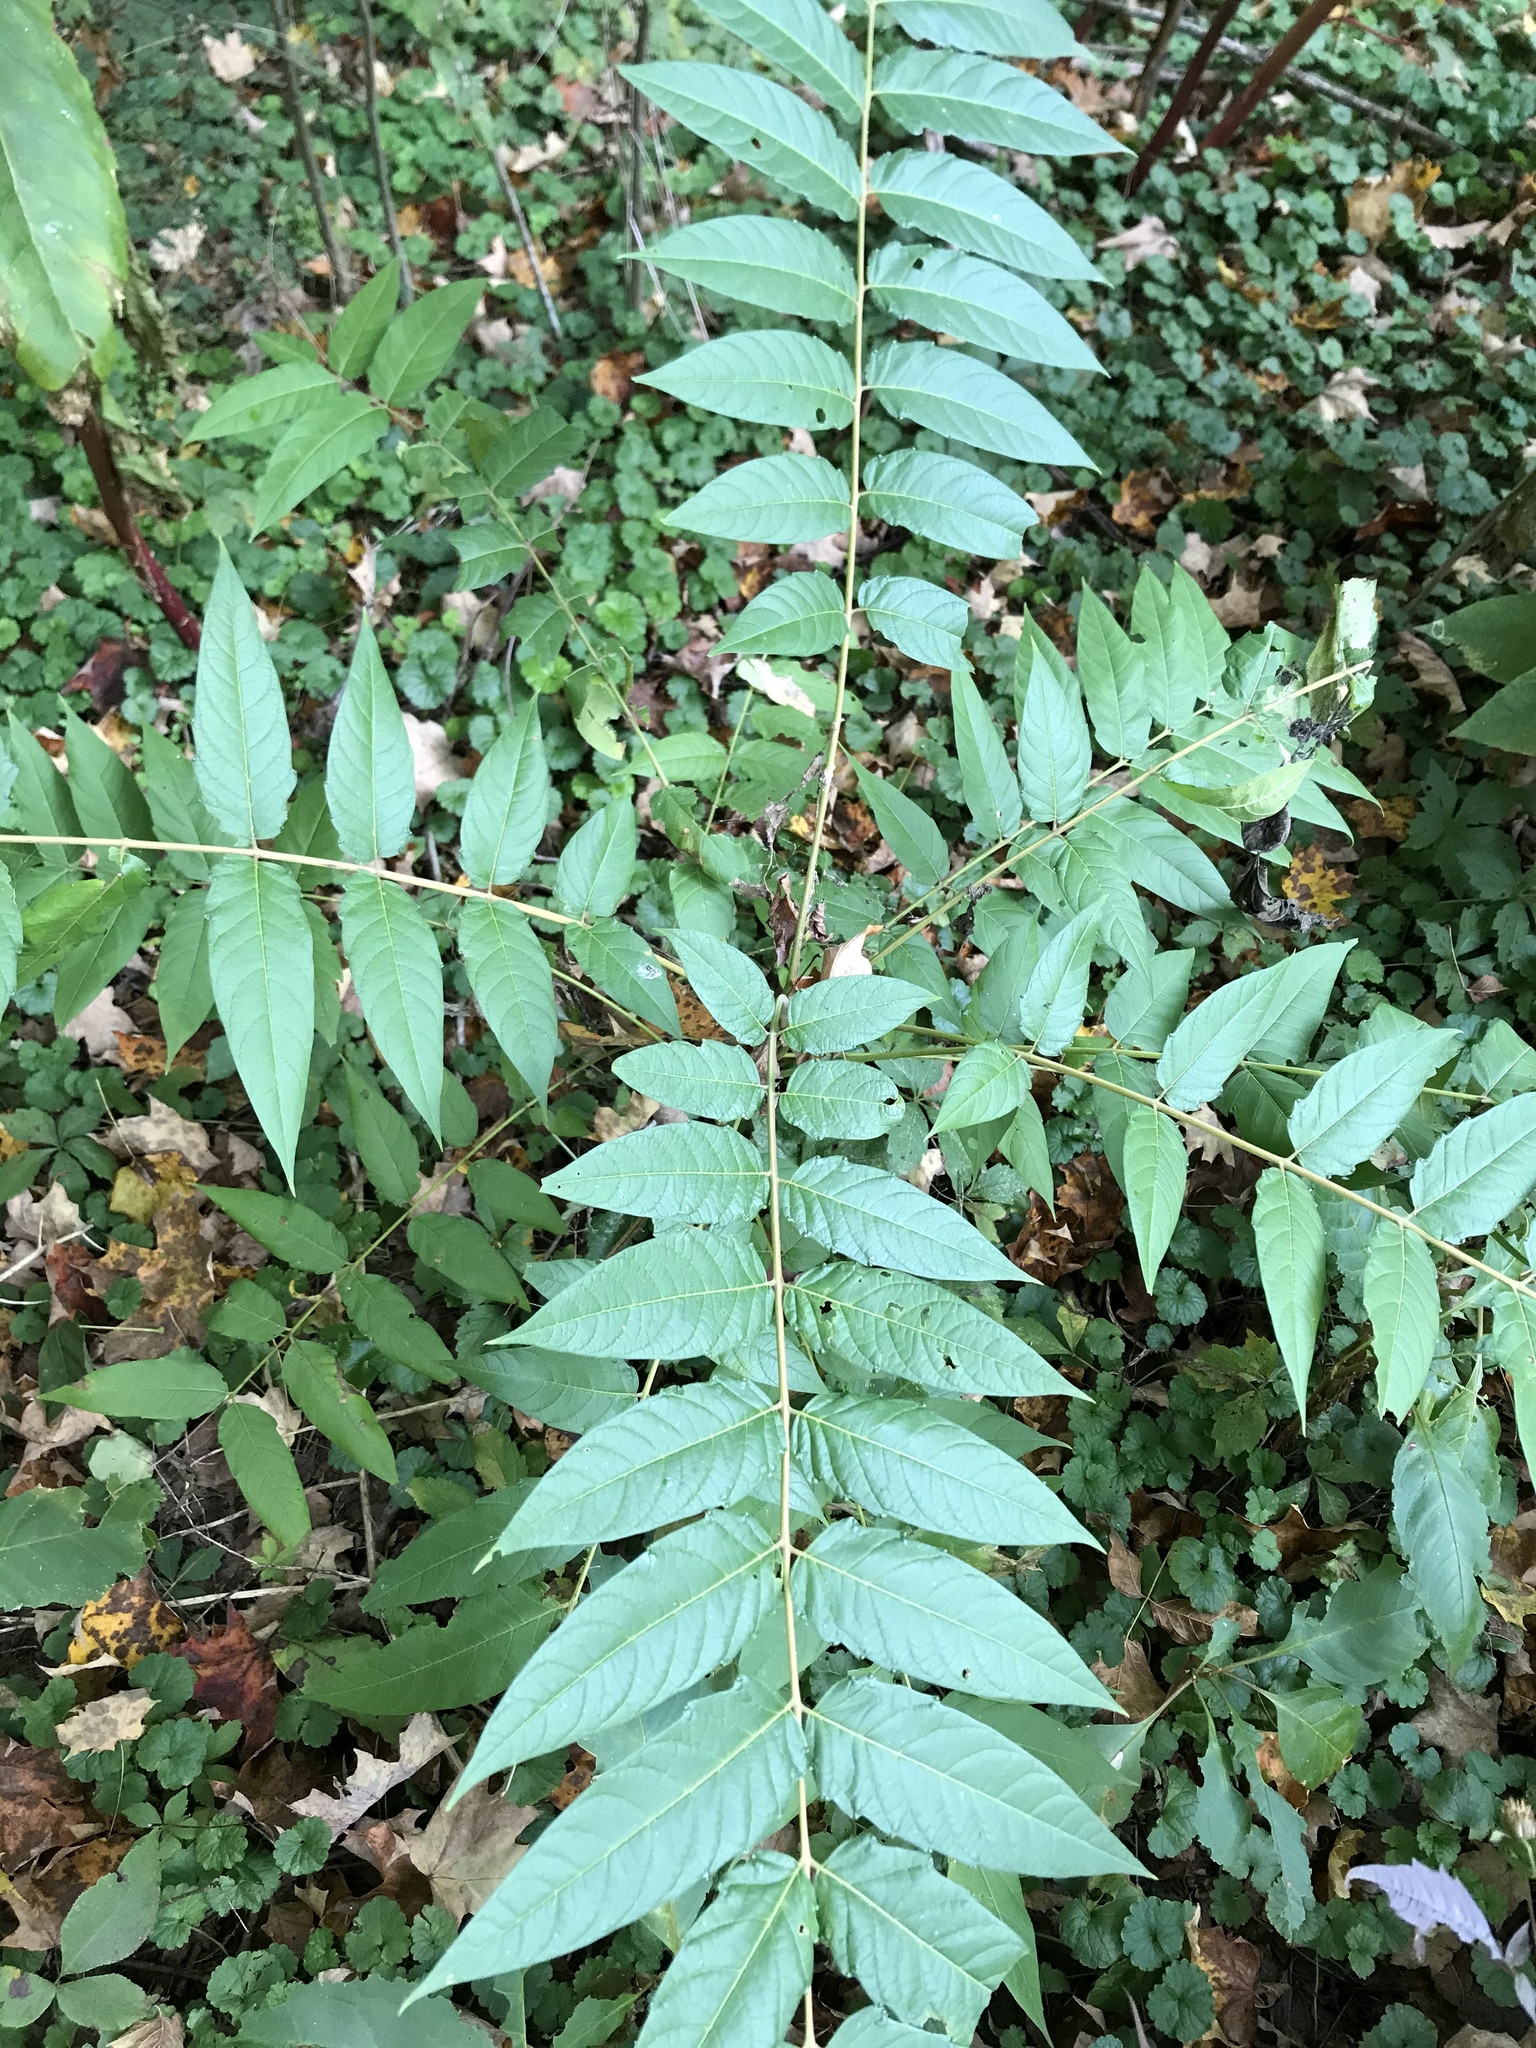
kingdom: Plantae
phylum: Tracheophyta
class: Magnoliopsida
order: Sapindales
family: Simaroubaceae
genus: Ailanthus
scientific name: Ailanthus altissima
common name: Tree-of-heaven
